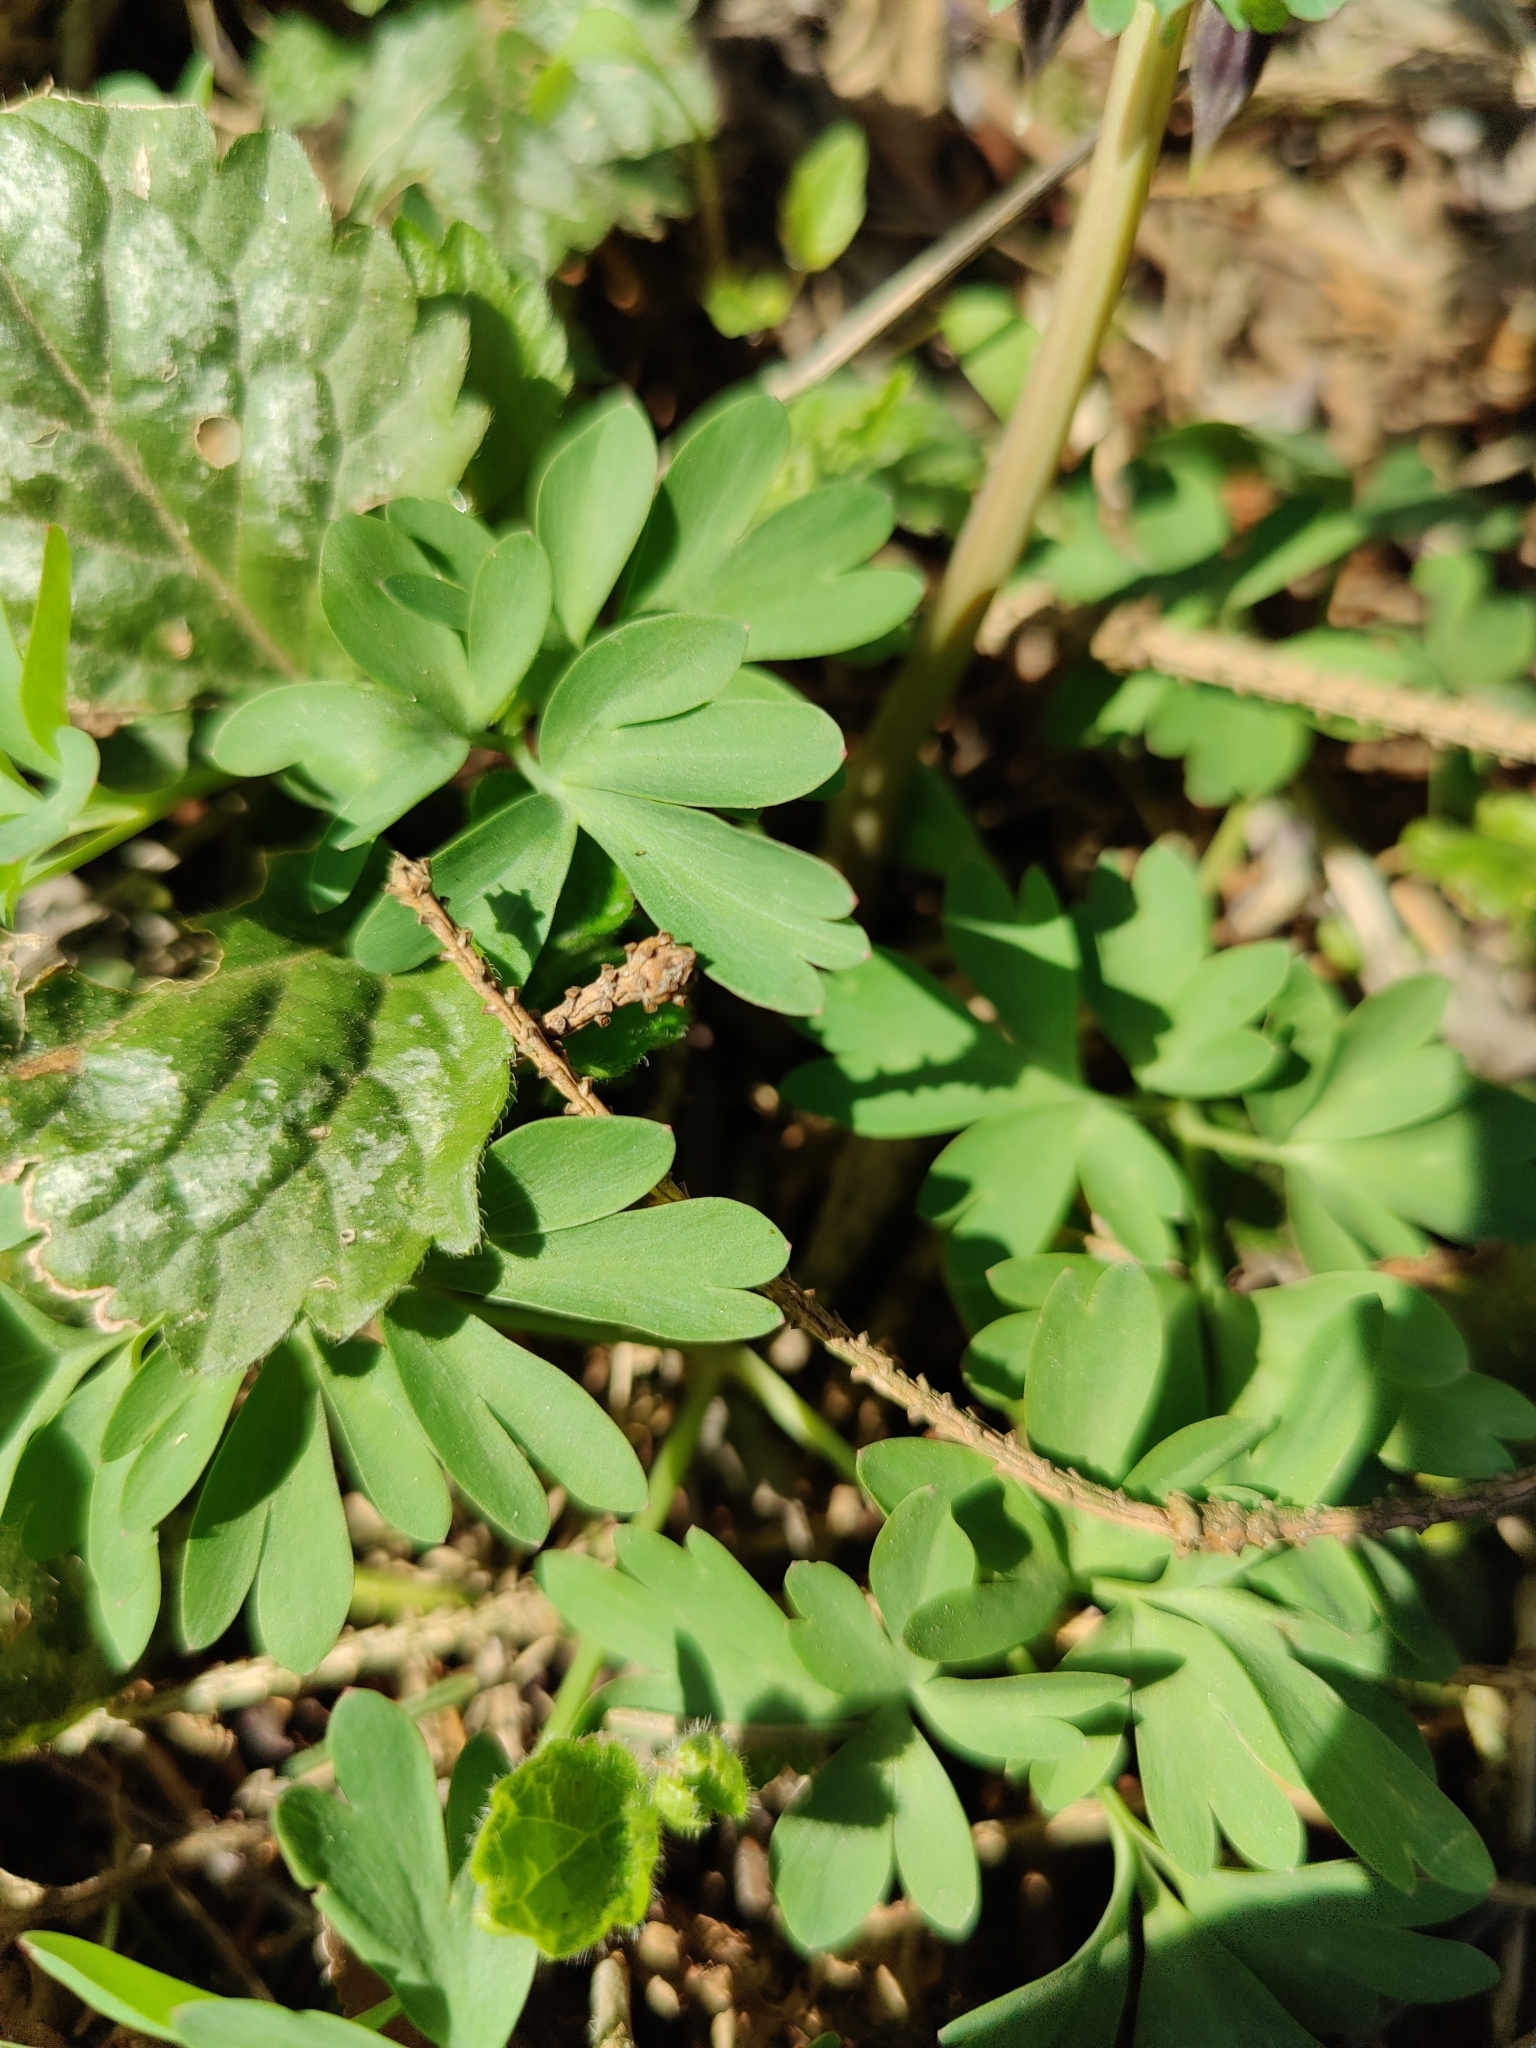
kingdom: Plantae
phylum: Tracheophyta
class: Magnoliopsida
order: Ranunculales
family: Papaveraceae
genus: Corydalis
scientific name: Corydalis solida
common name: Bird-in-a-bush
